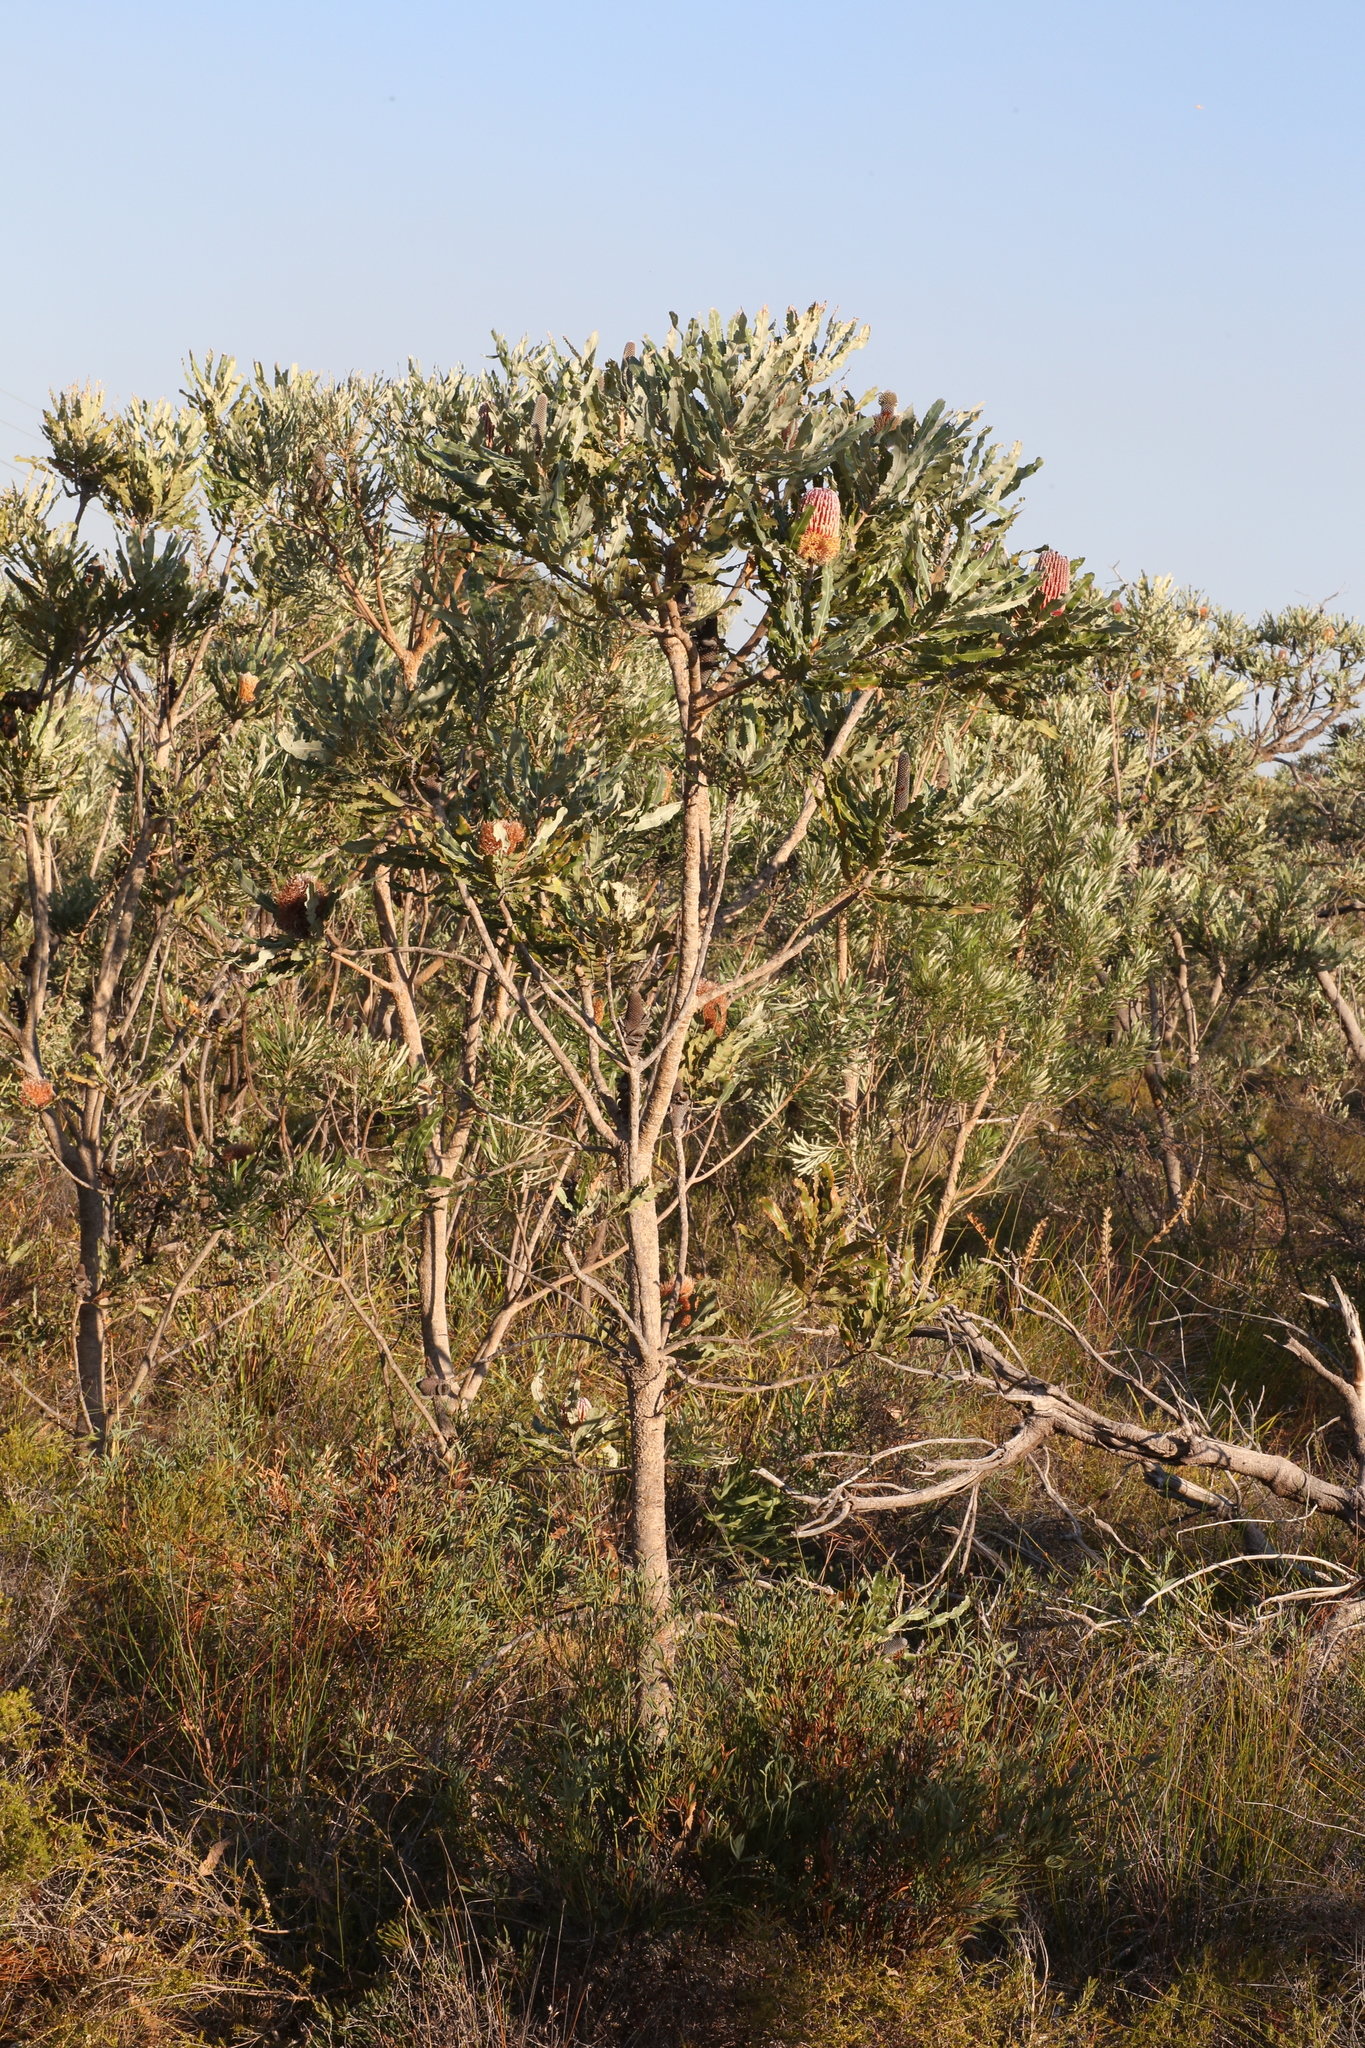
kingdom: Plantae
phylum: Tracheophyta
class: Magnoliopsida
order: Proteales
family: Proteaceae
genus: Banksia
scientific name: Banksia menziesii
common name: Menzie's banksia
